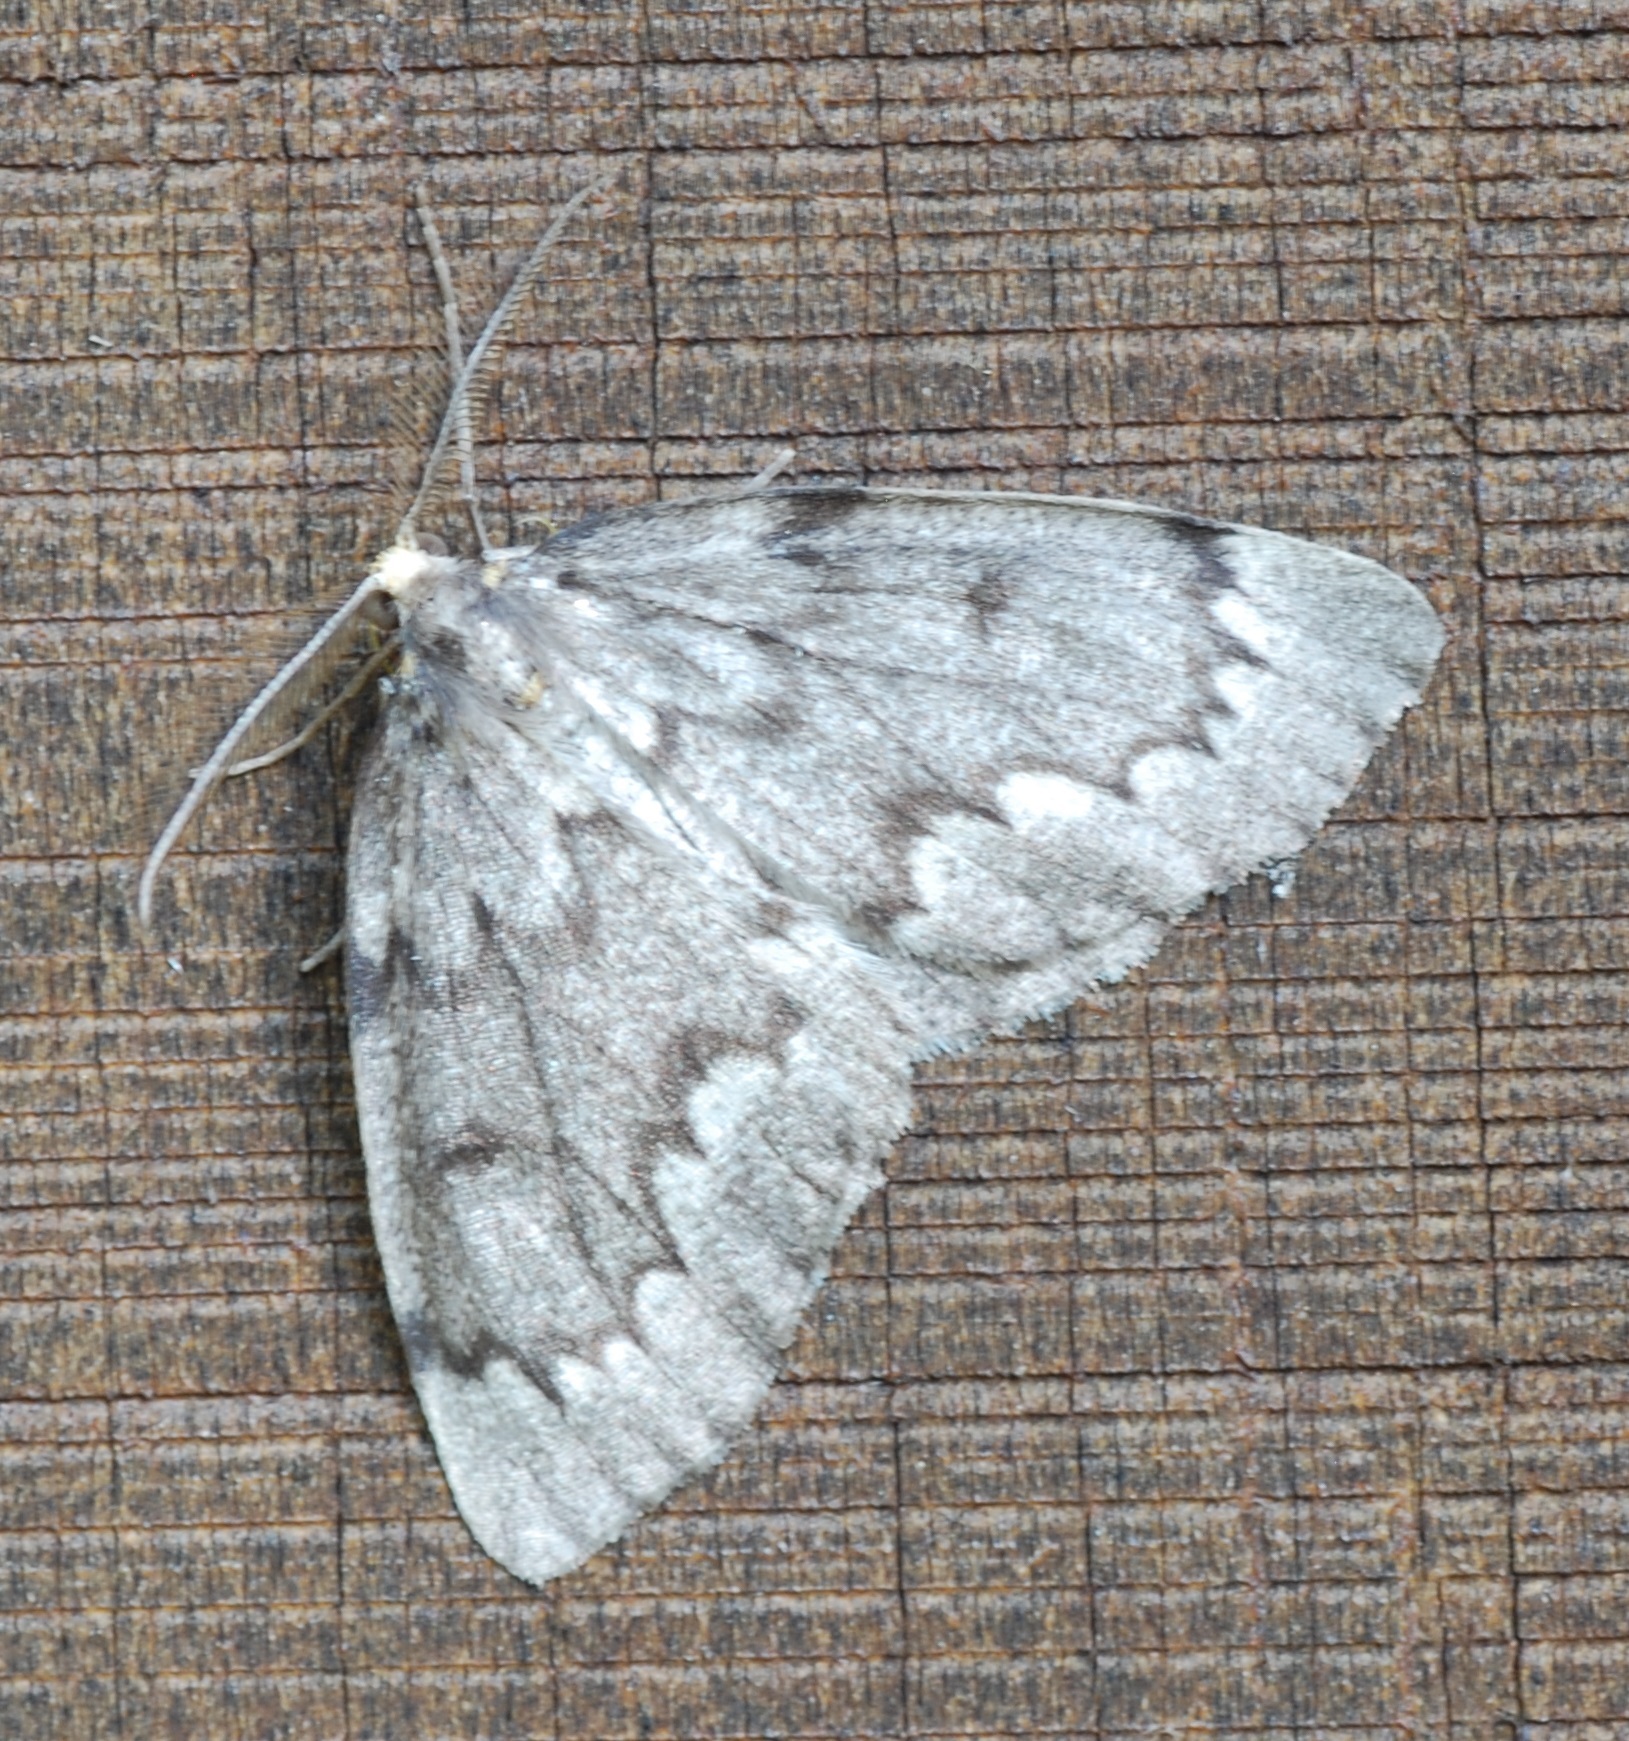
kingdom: Animalia
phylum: Arthropoda
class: Insecta
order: Lepidoptera
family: Geometridae
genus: Nepytia
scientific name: Nepytia canosaria
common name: False hemlock looper
